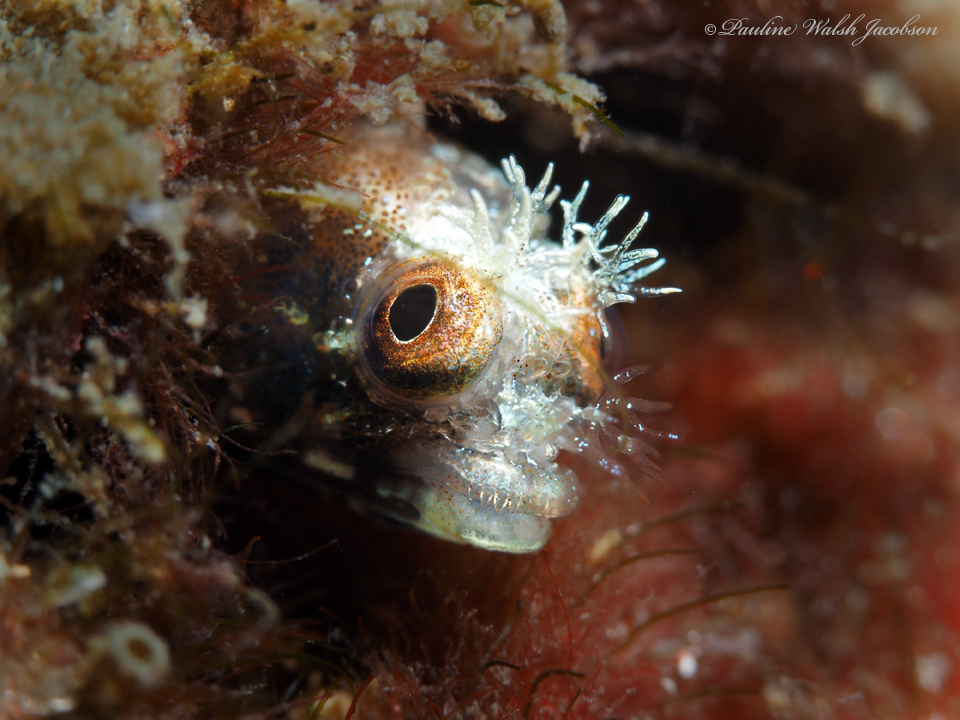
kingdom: Animalia
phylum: Chordata
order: Perciformes
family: Chaenopsidae
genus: Acanthemblemaria
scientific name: Acanthemblemaria aspera
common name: Roughhead blenny
